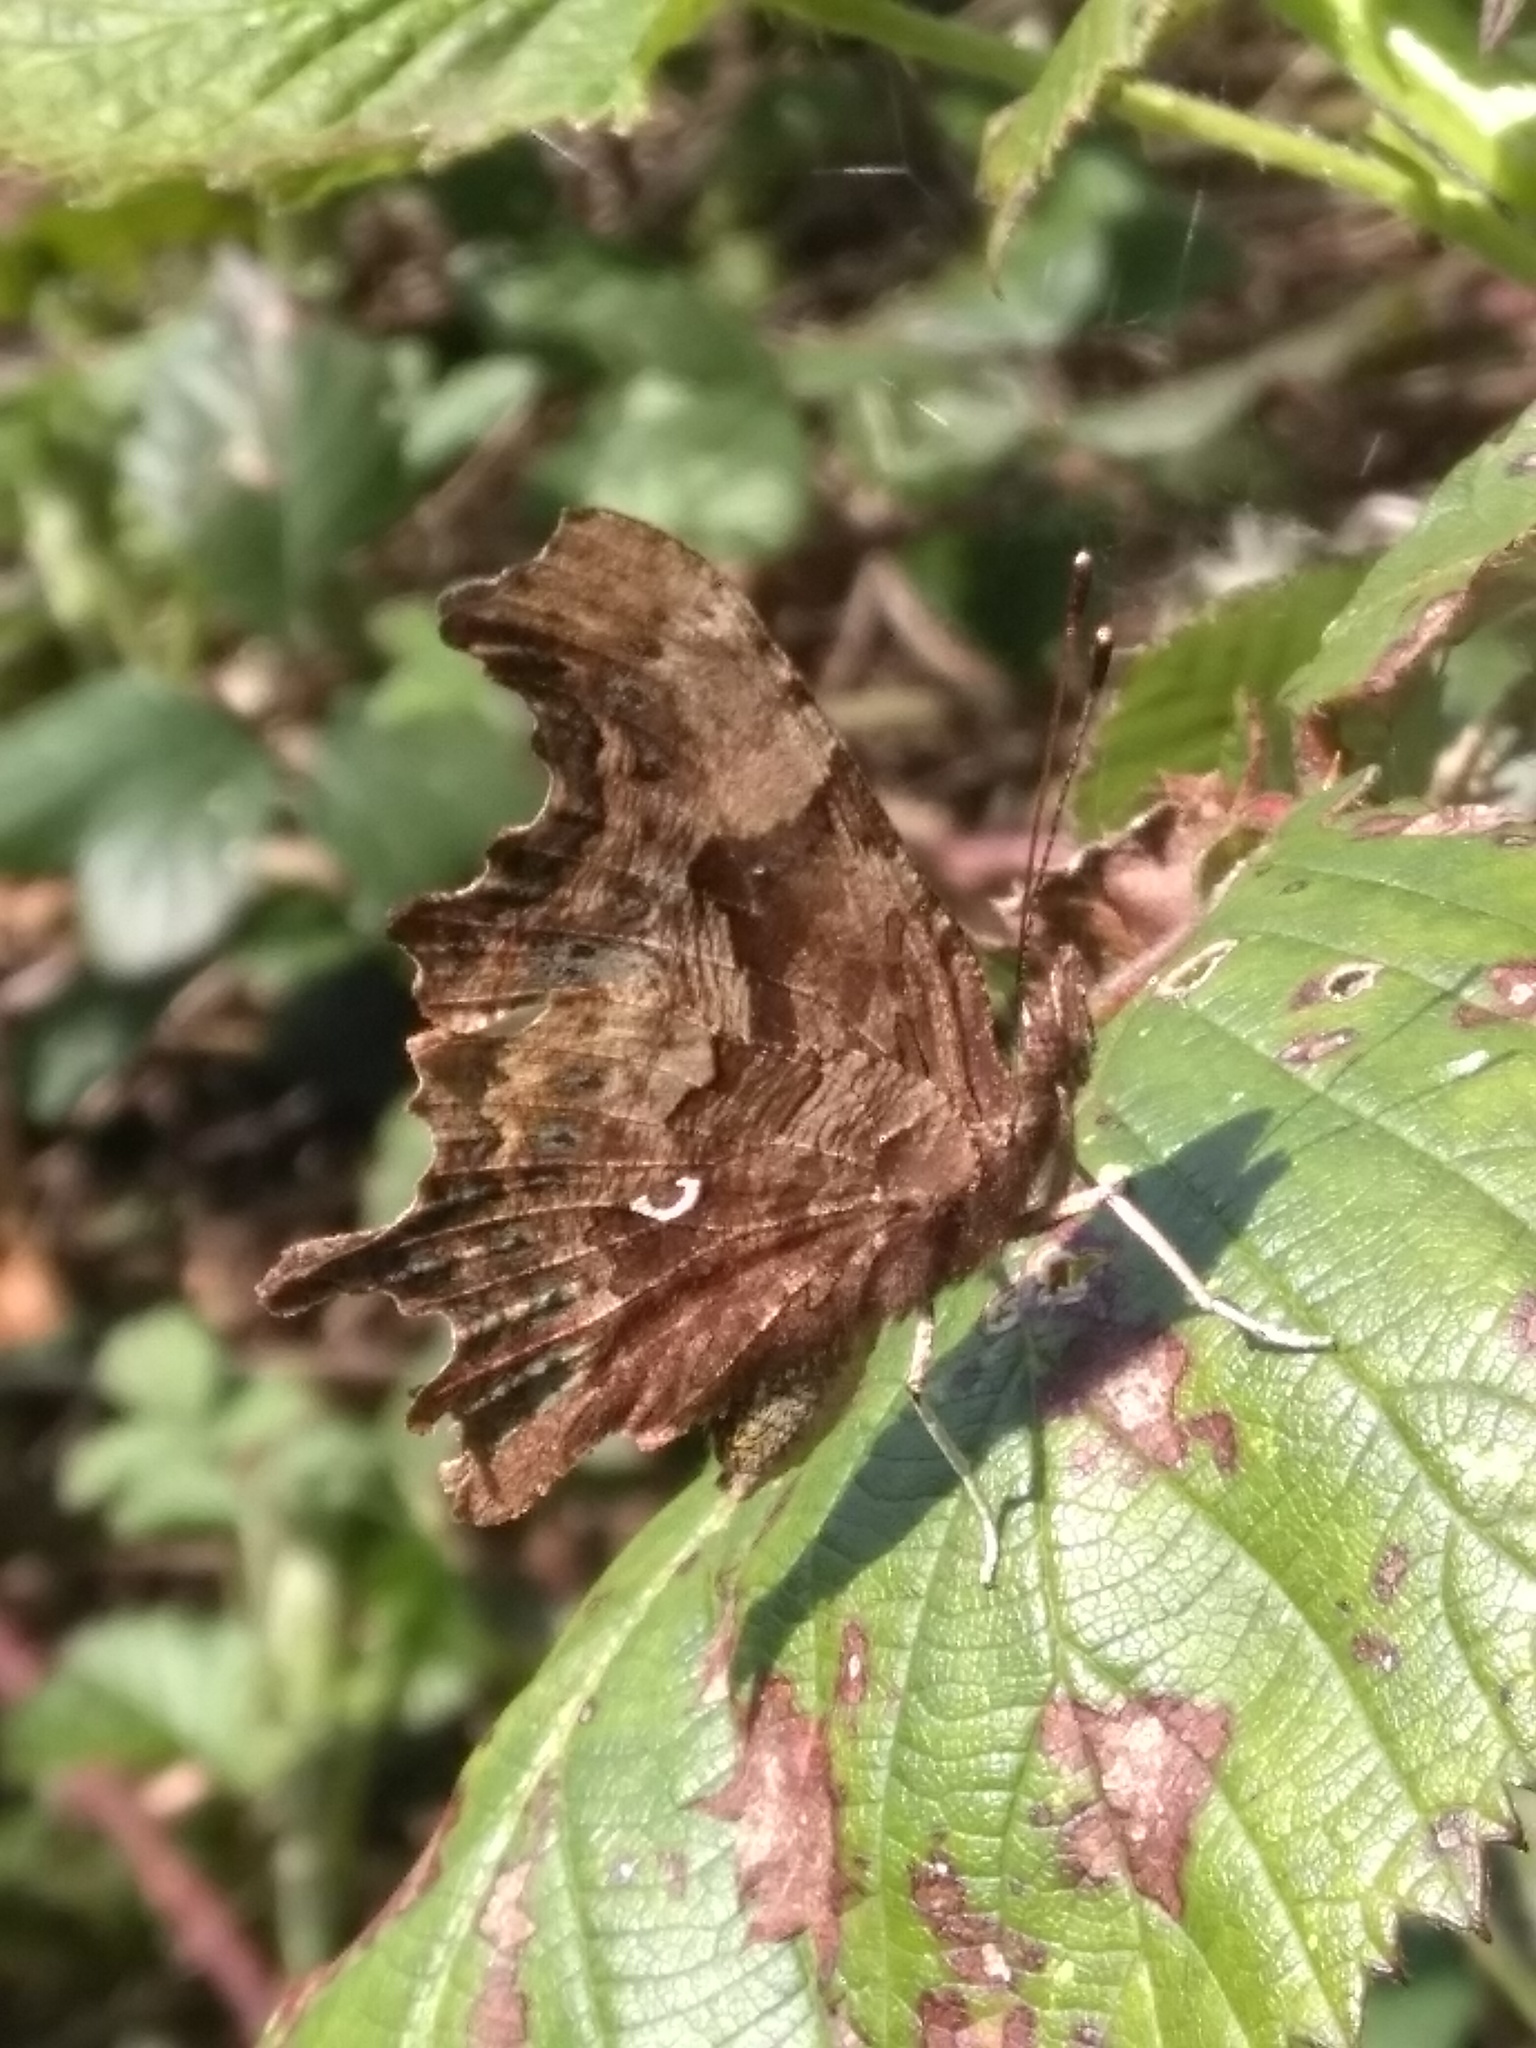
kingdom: Animalia
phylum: Arthropoda
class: Insecta
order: Lepidoptera
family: Nymphalidae
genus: Polygonia
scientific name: Polygonia c-album
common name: Comma
